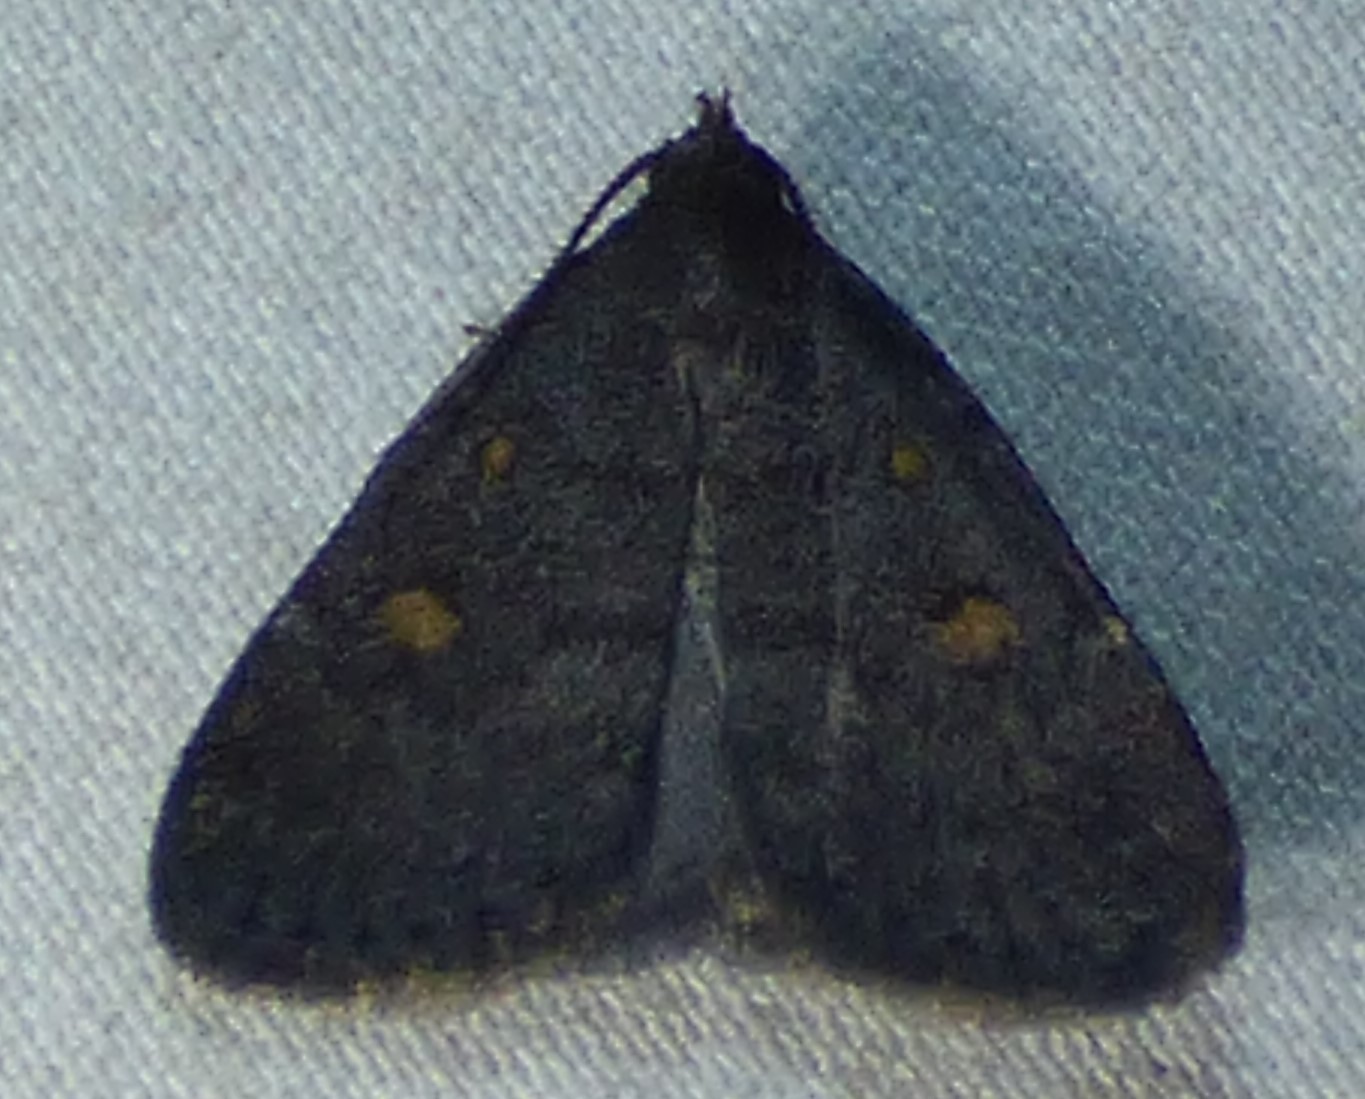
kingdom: Animalia
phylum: Arthropoda
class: Insecta
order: Lepidoptera
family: Erebidae
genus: Idia
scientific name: Idia diminuendis
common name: Orange-spotted idia moth
